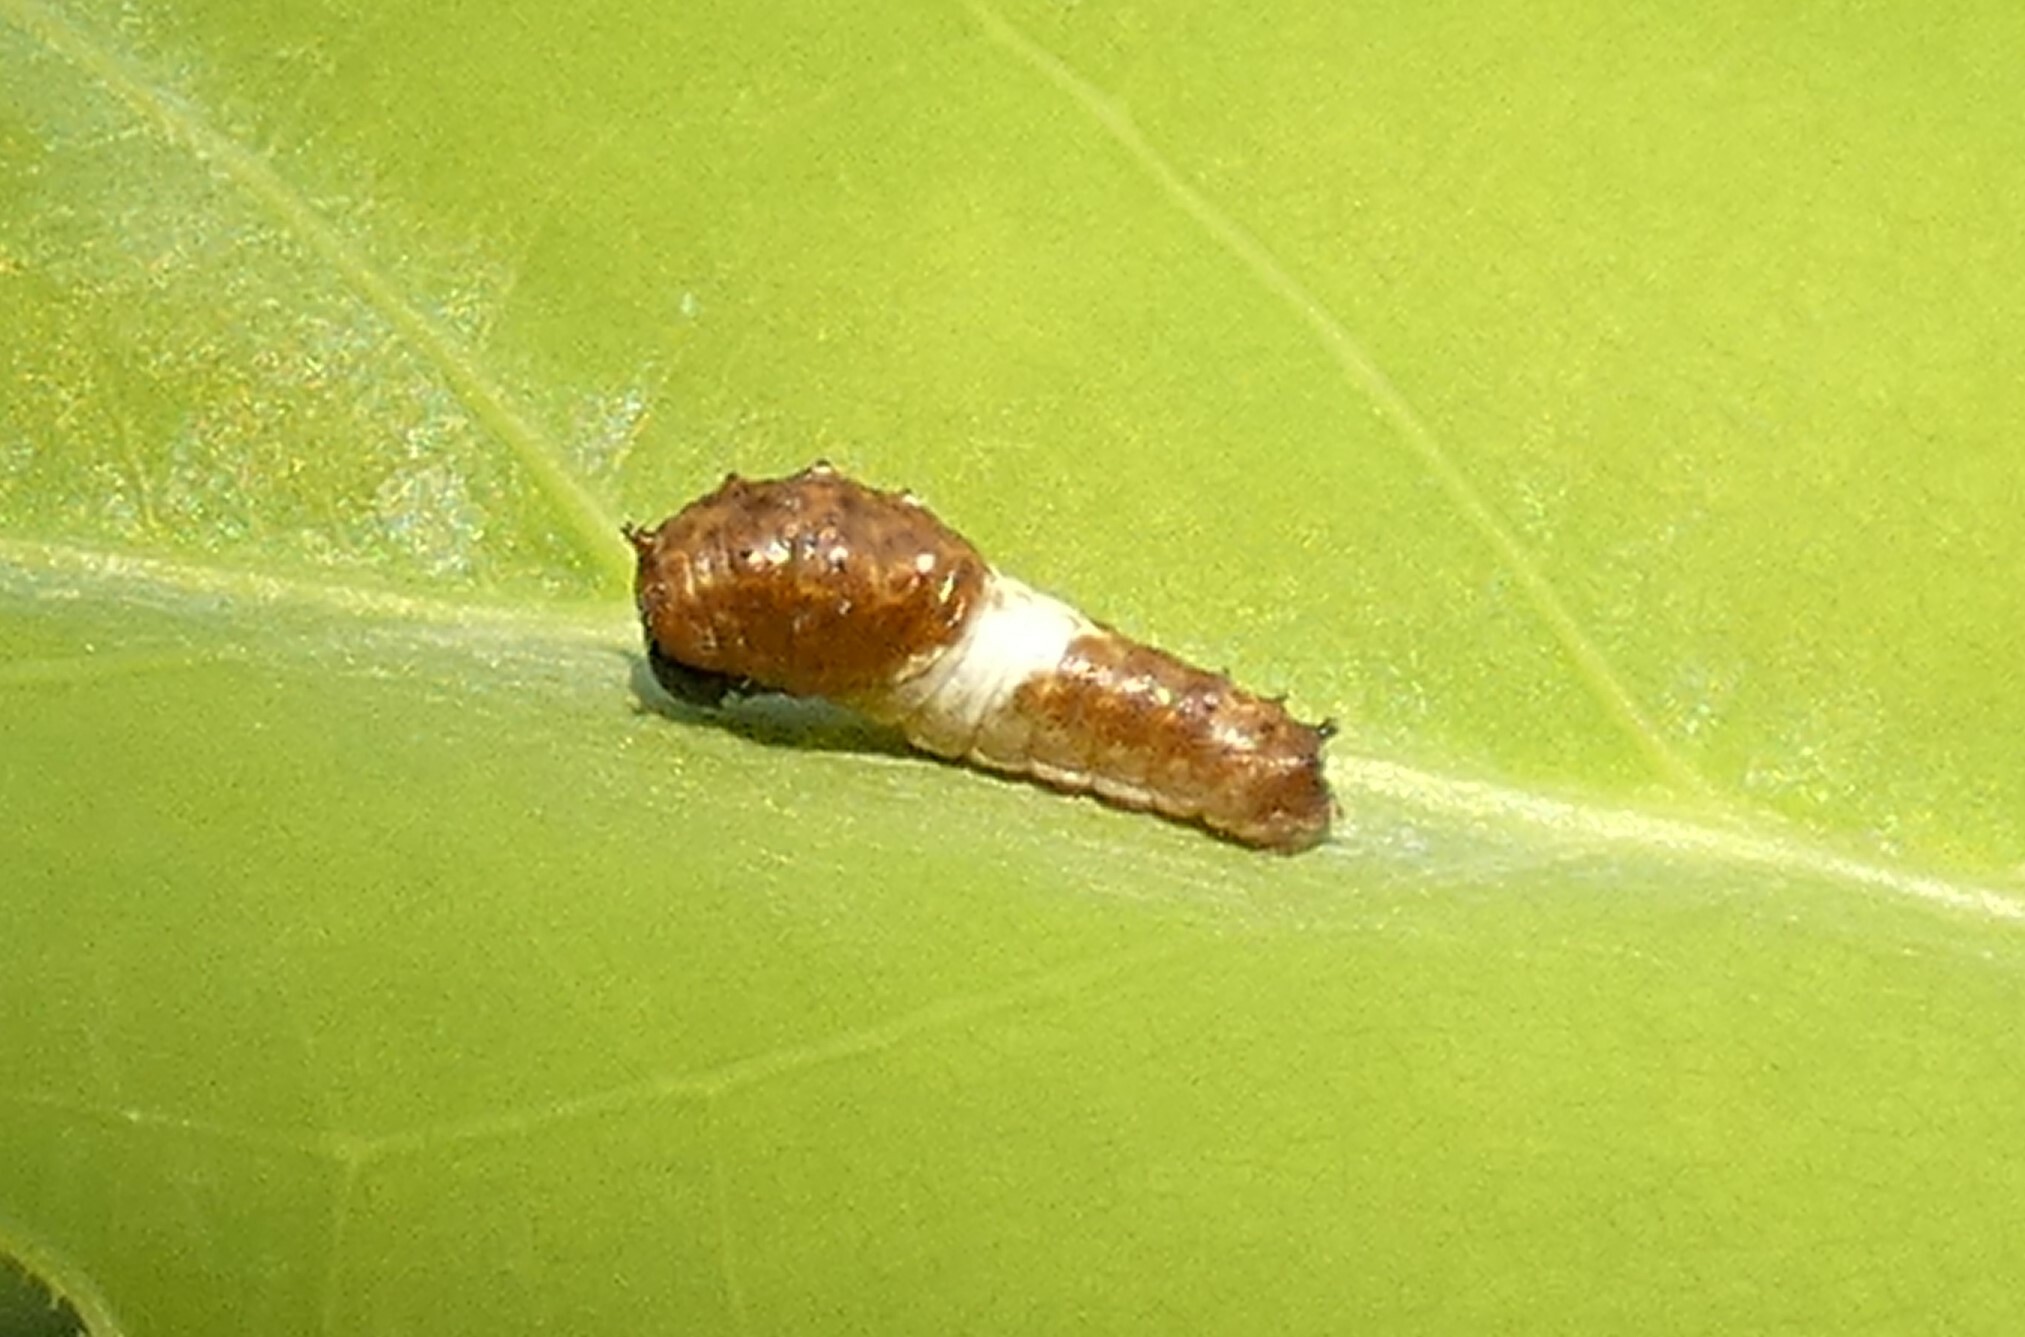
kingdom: Animalia
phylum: Arthropoda
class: Insecta
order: Lepidoptera
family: Papilionidae
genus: Papilio
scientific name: Papilio glaucus
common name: Tiger swallowtail
